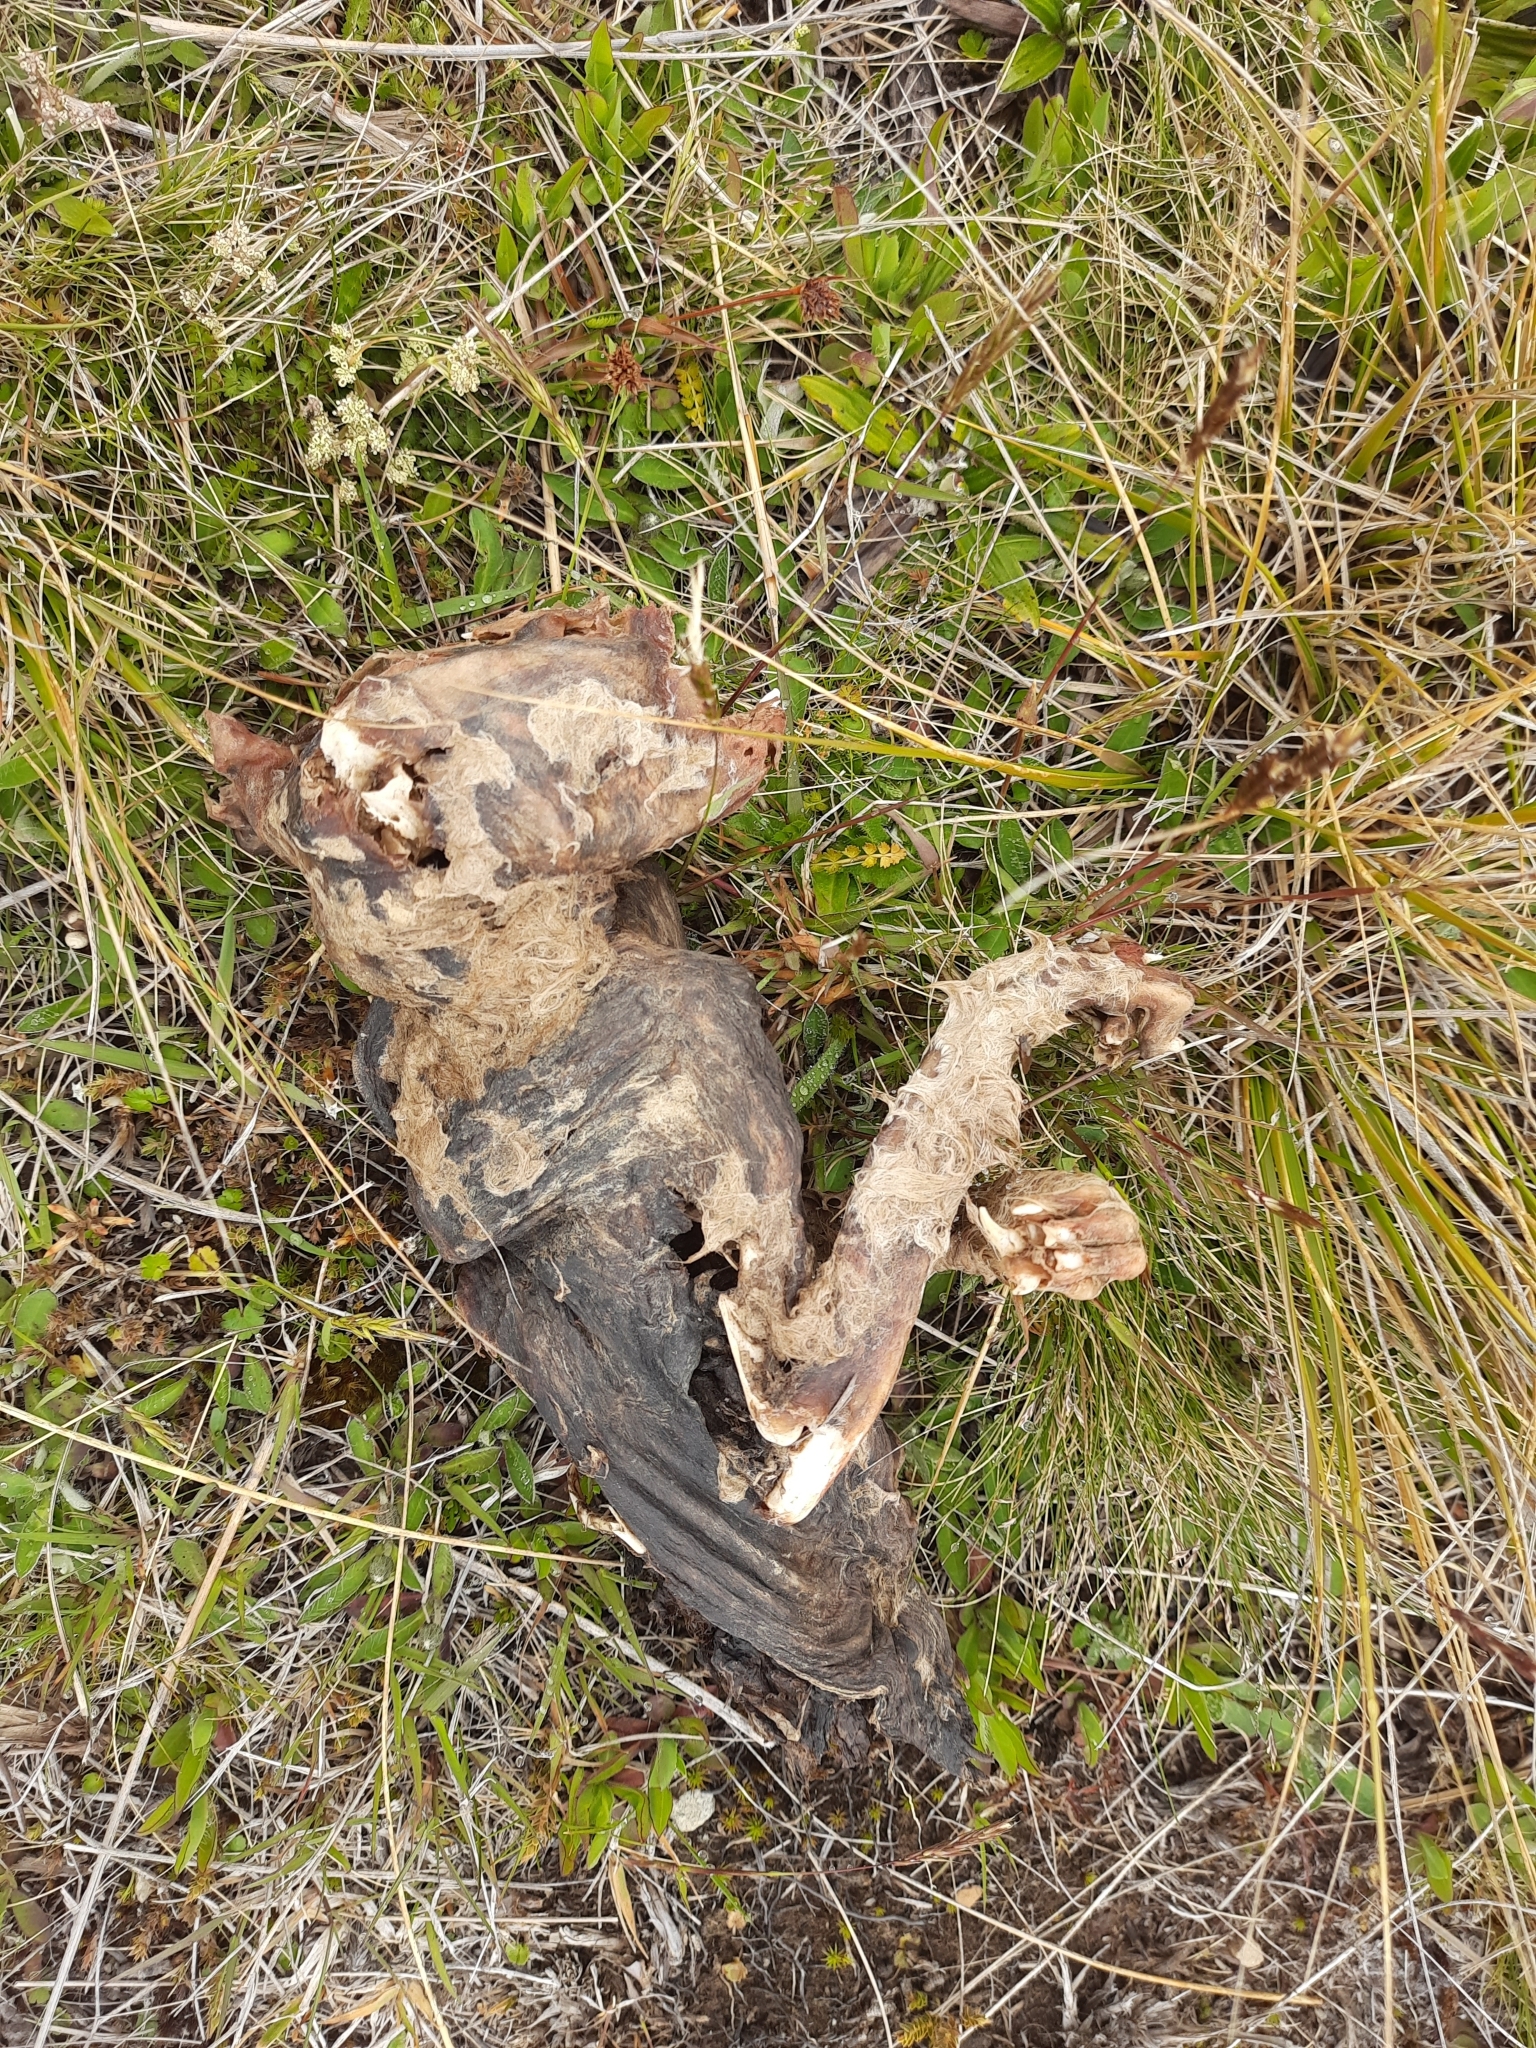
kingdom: Animalia
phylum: Chordata
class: Mammalia
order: Diprotodontia
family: Phalangeridae
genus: Trichosurus
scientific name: Trichosurus vulpecula
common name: Common brushtail
